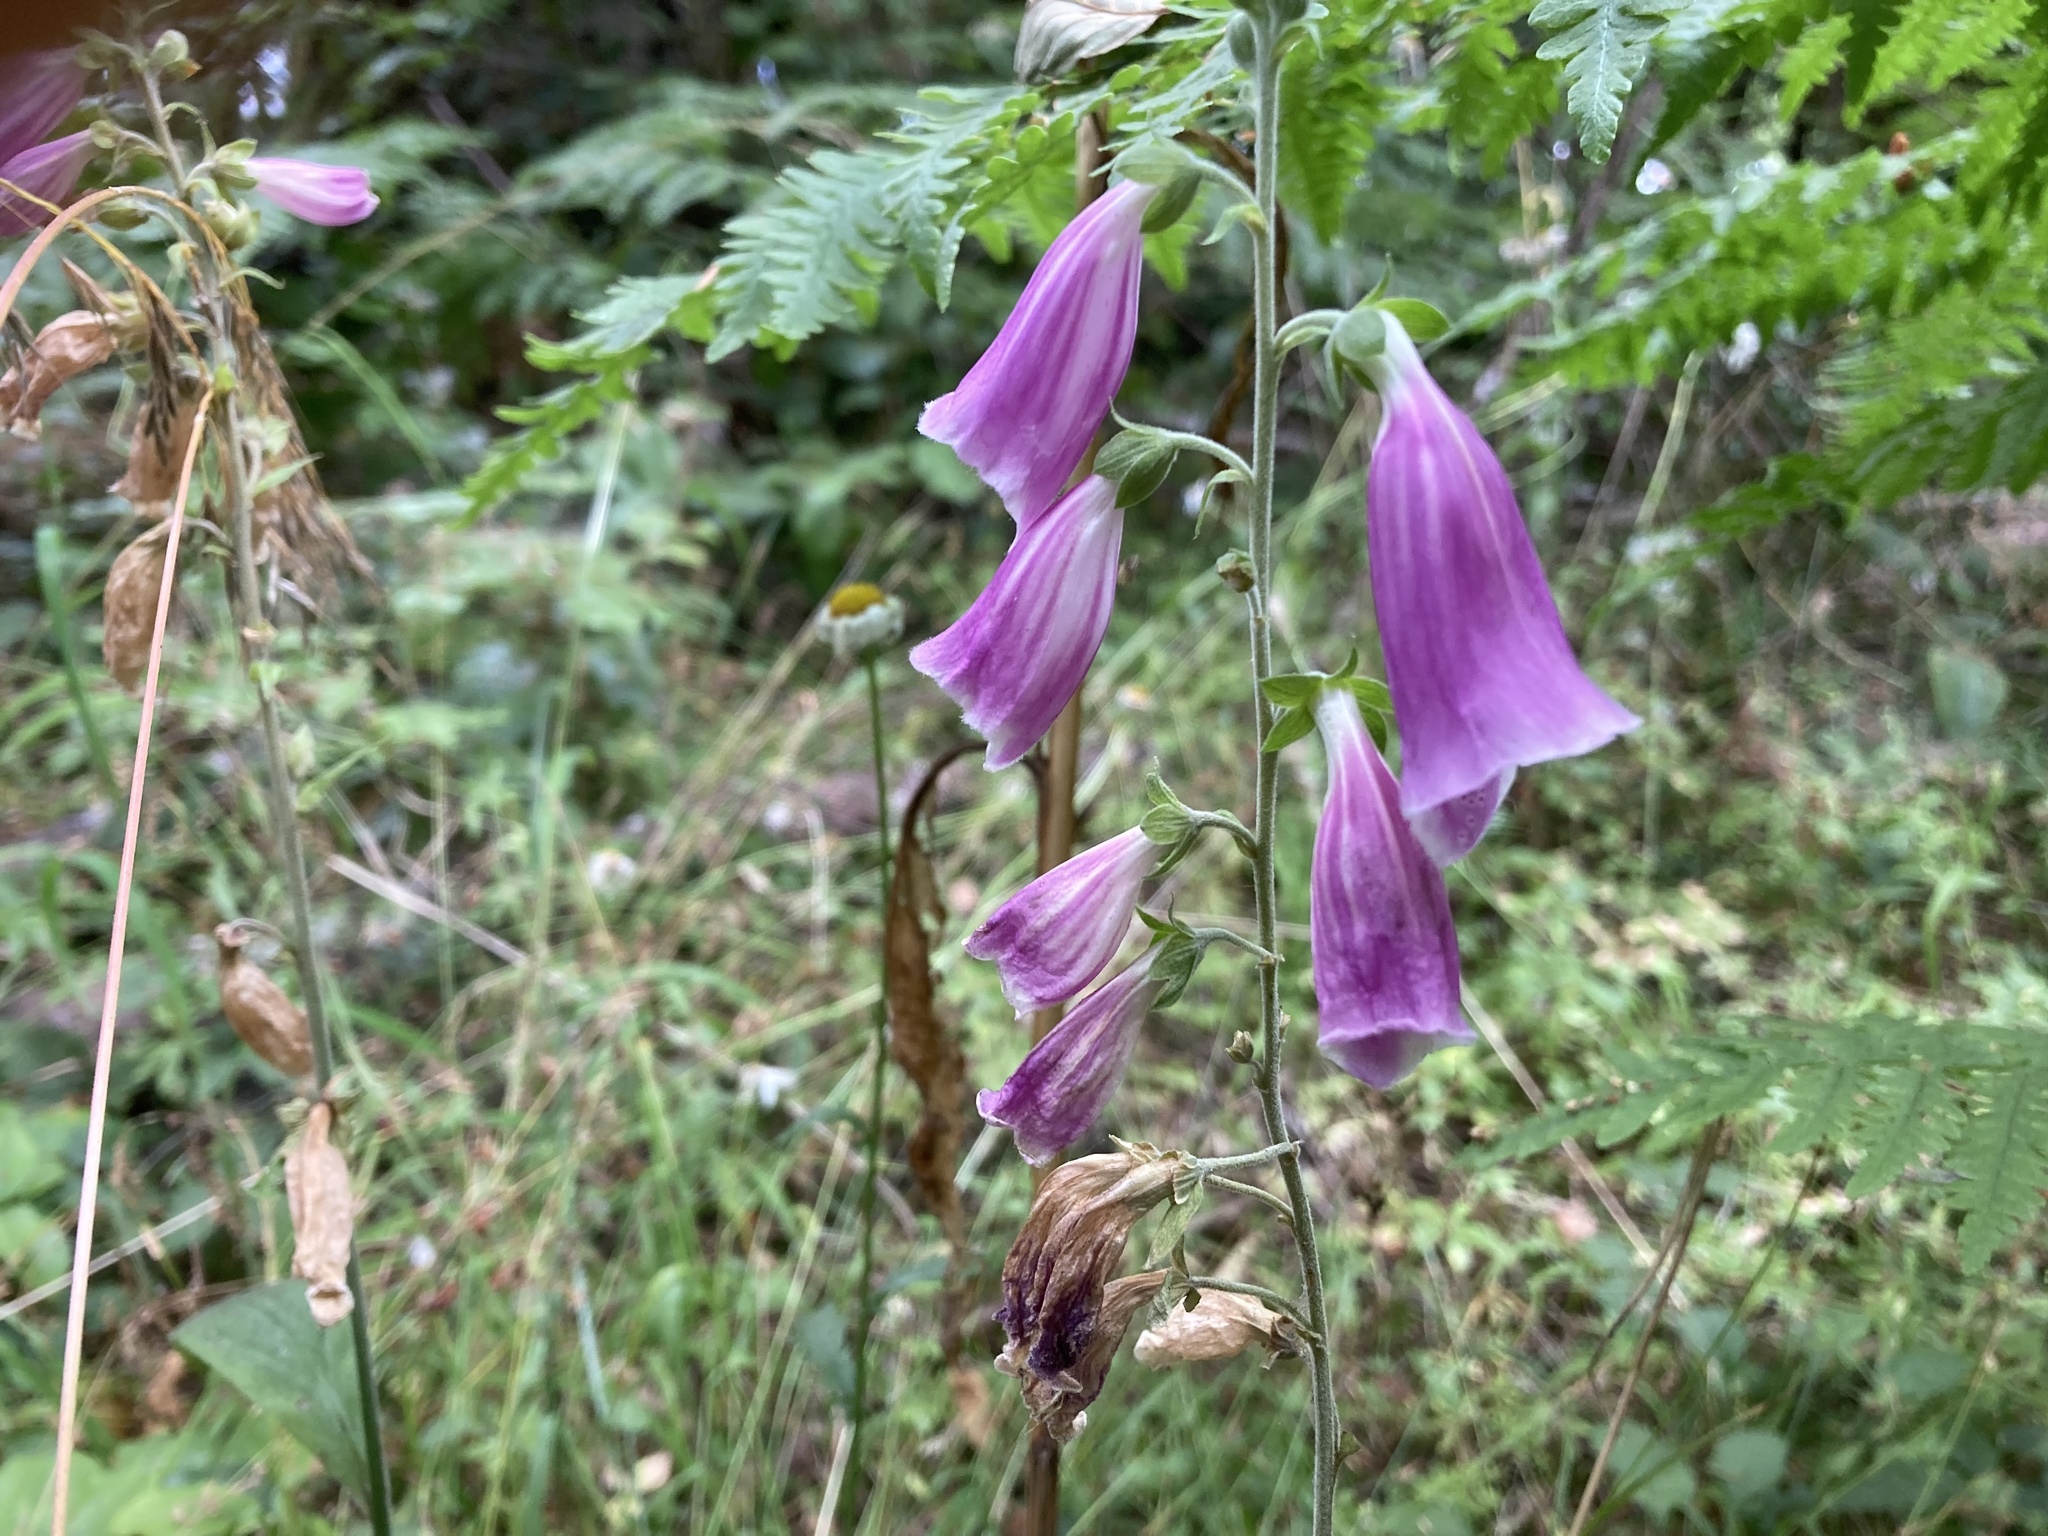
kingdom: Plantae
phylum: Tracheophyta
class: Magnoliopsida
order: Lamiales
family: Plantaginaceae
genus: Digitalis
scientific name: Digitalis purpurea
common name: Foxglove
